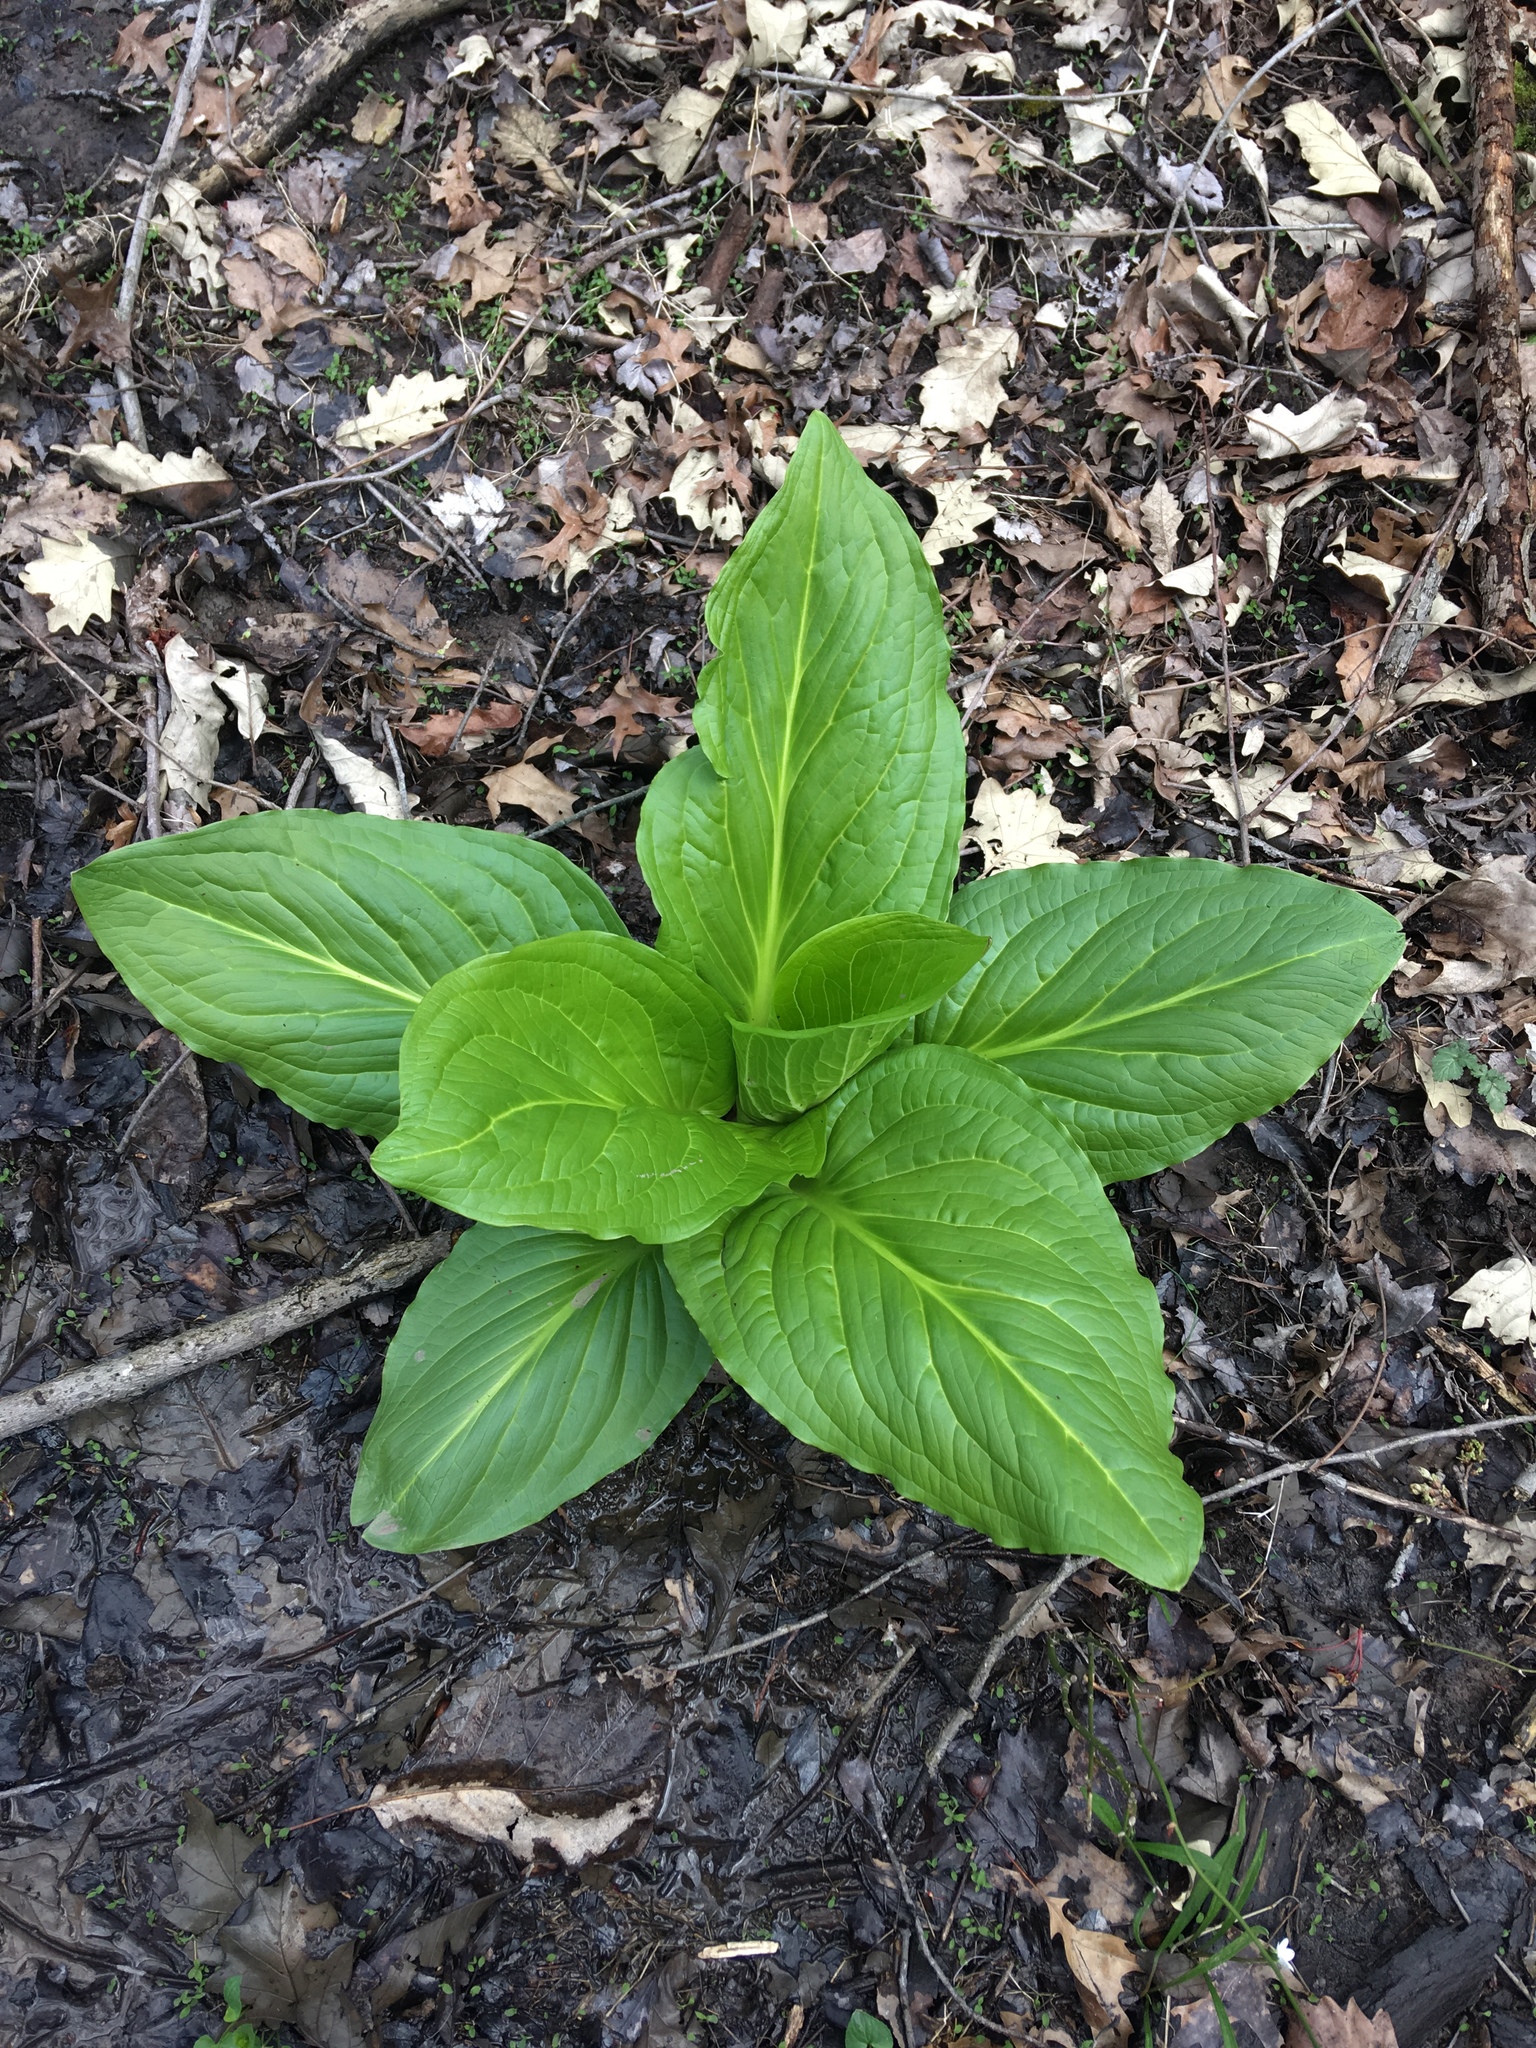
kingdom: Plantae
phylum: Tracheophyta
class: Liliopsida
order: Alismatales
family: Araceae
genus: Symplocarpus
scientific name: Symplocarpus foetidus
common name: Eastern skunk cabbage
